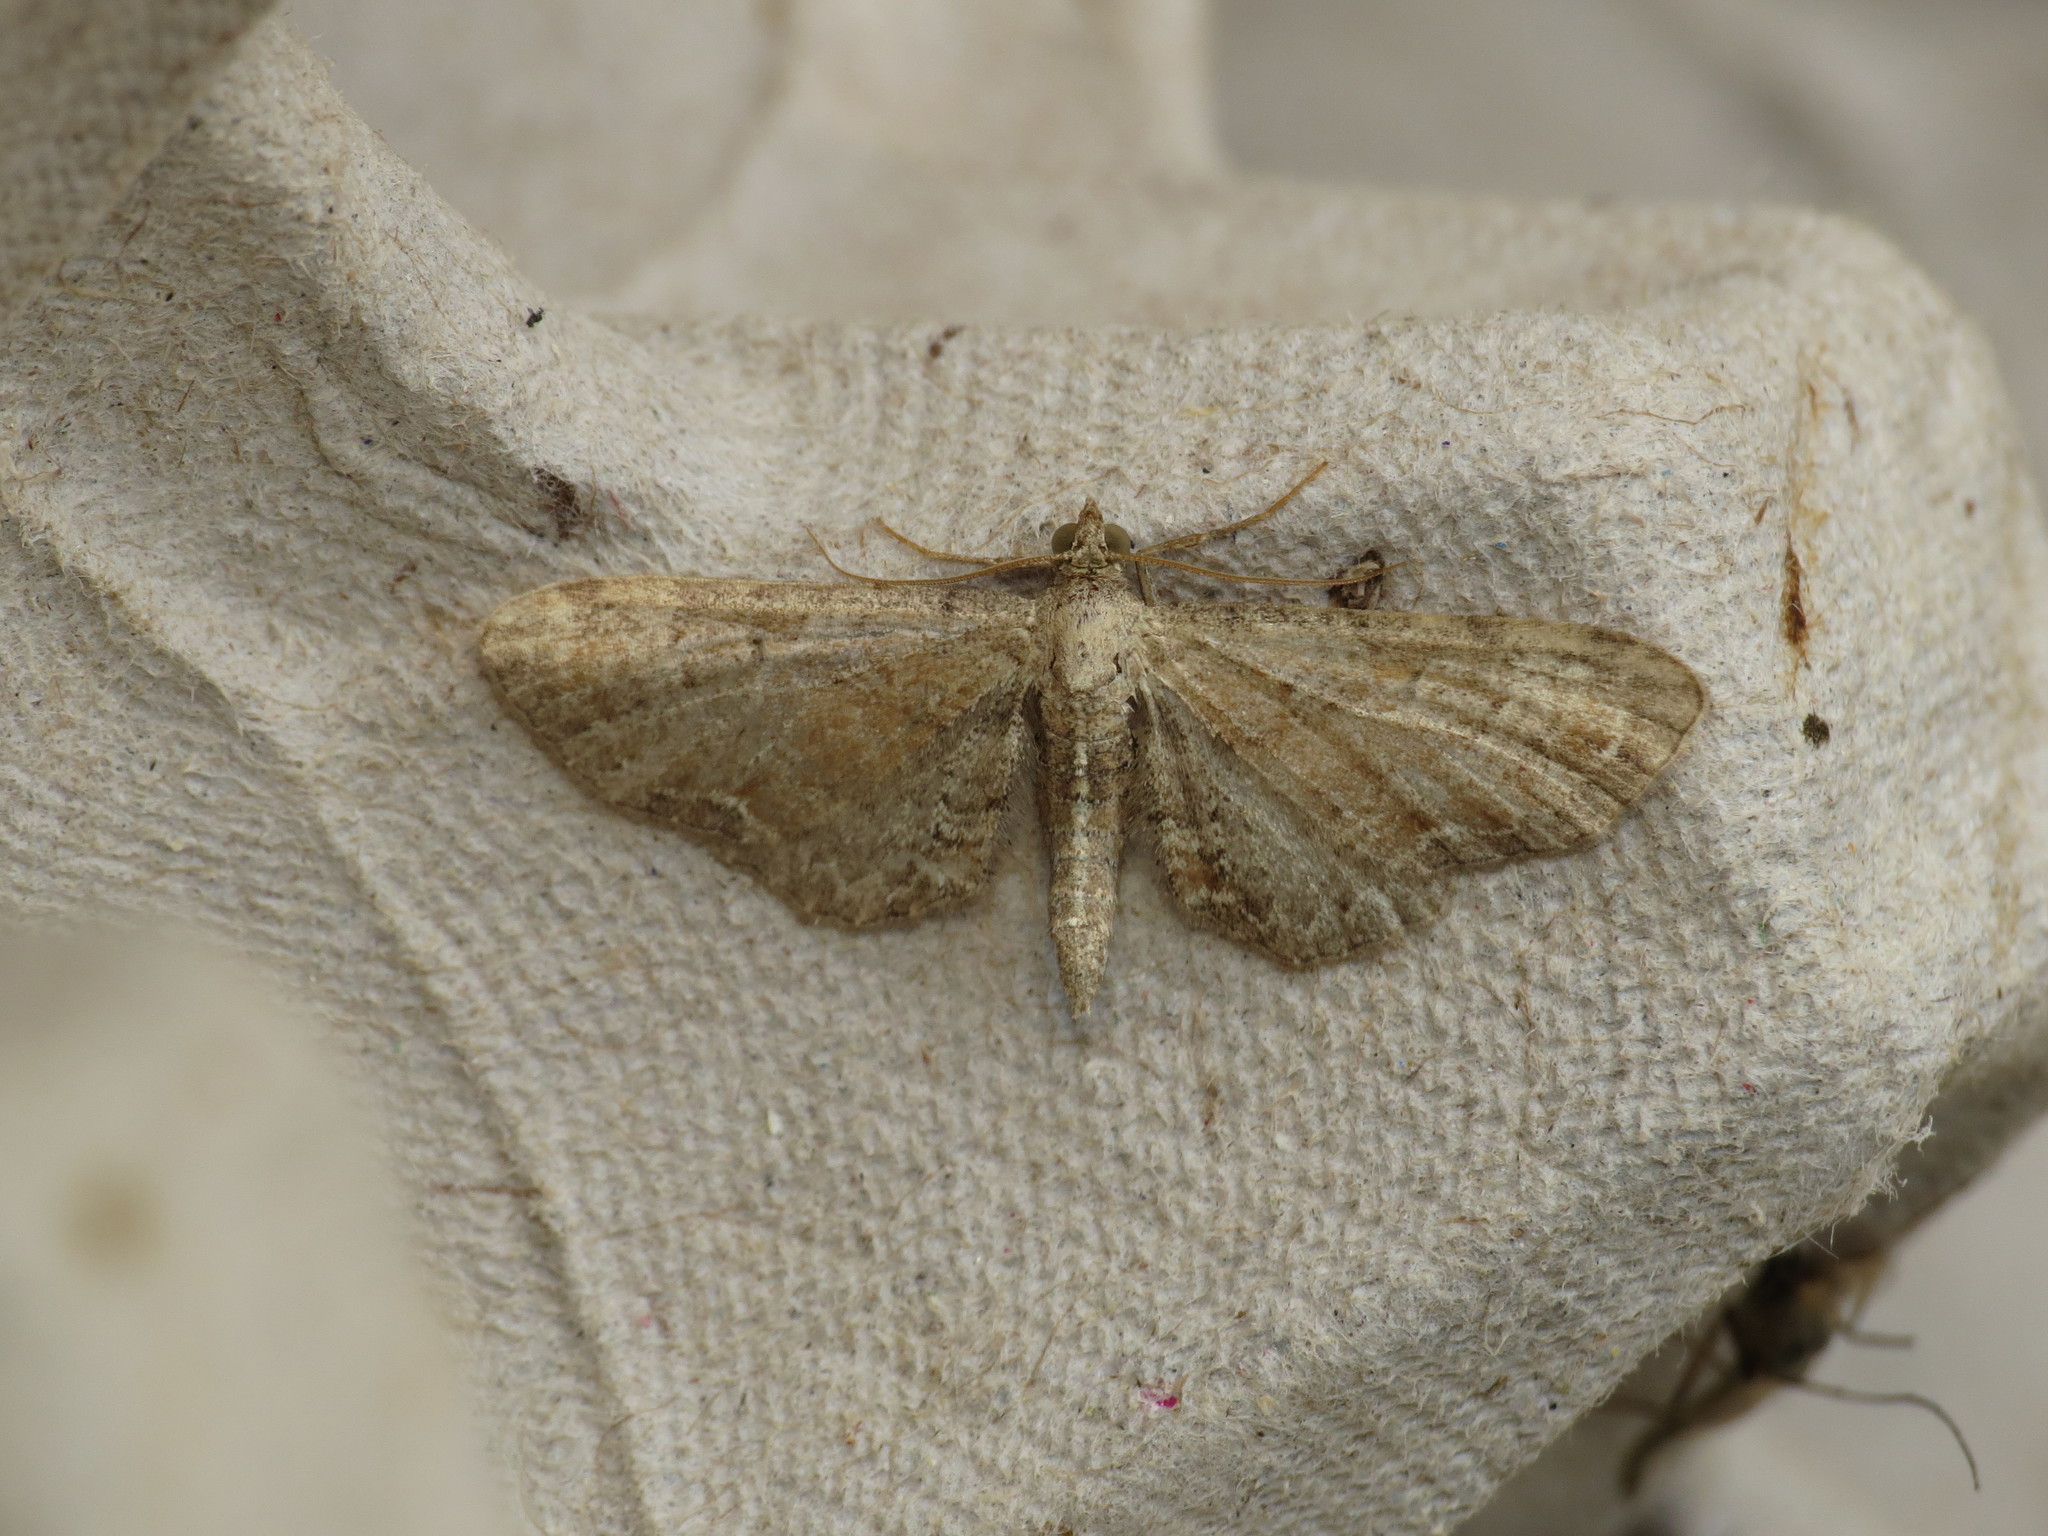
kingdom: Animalia
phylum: Arthropoda
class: Insecta
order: Lepidoptera
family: Geometridae
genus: Eupithecia
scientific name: Eupithecia simpliciata
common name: Plain pug
